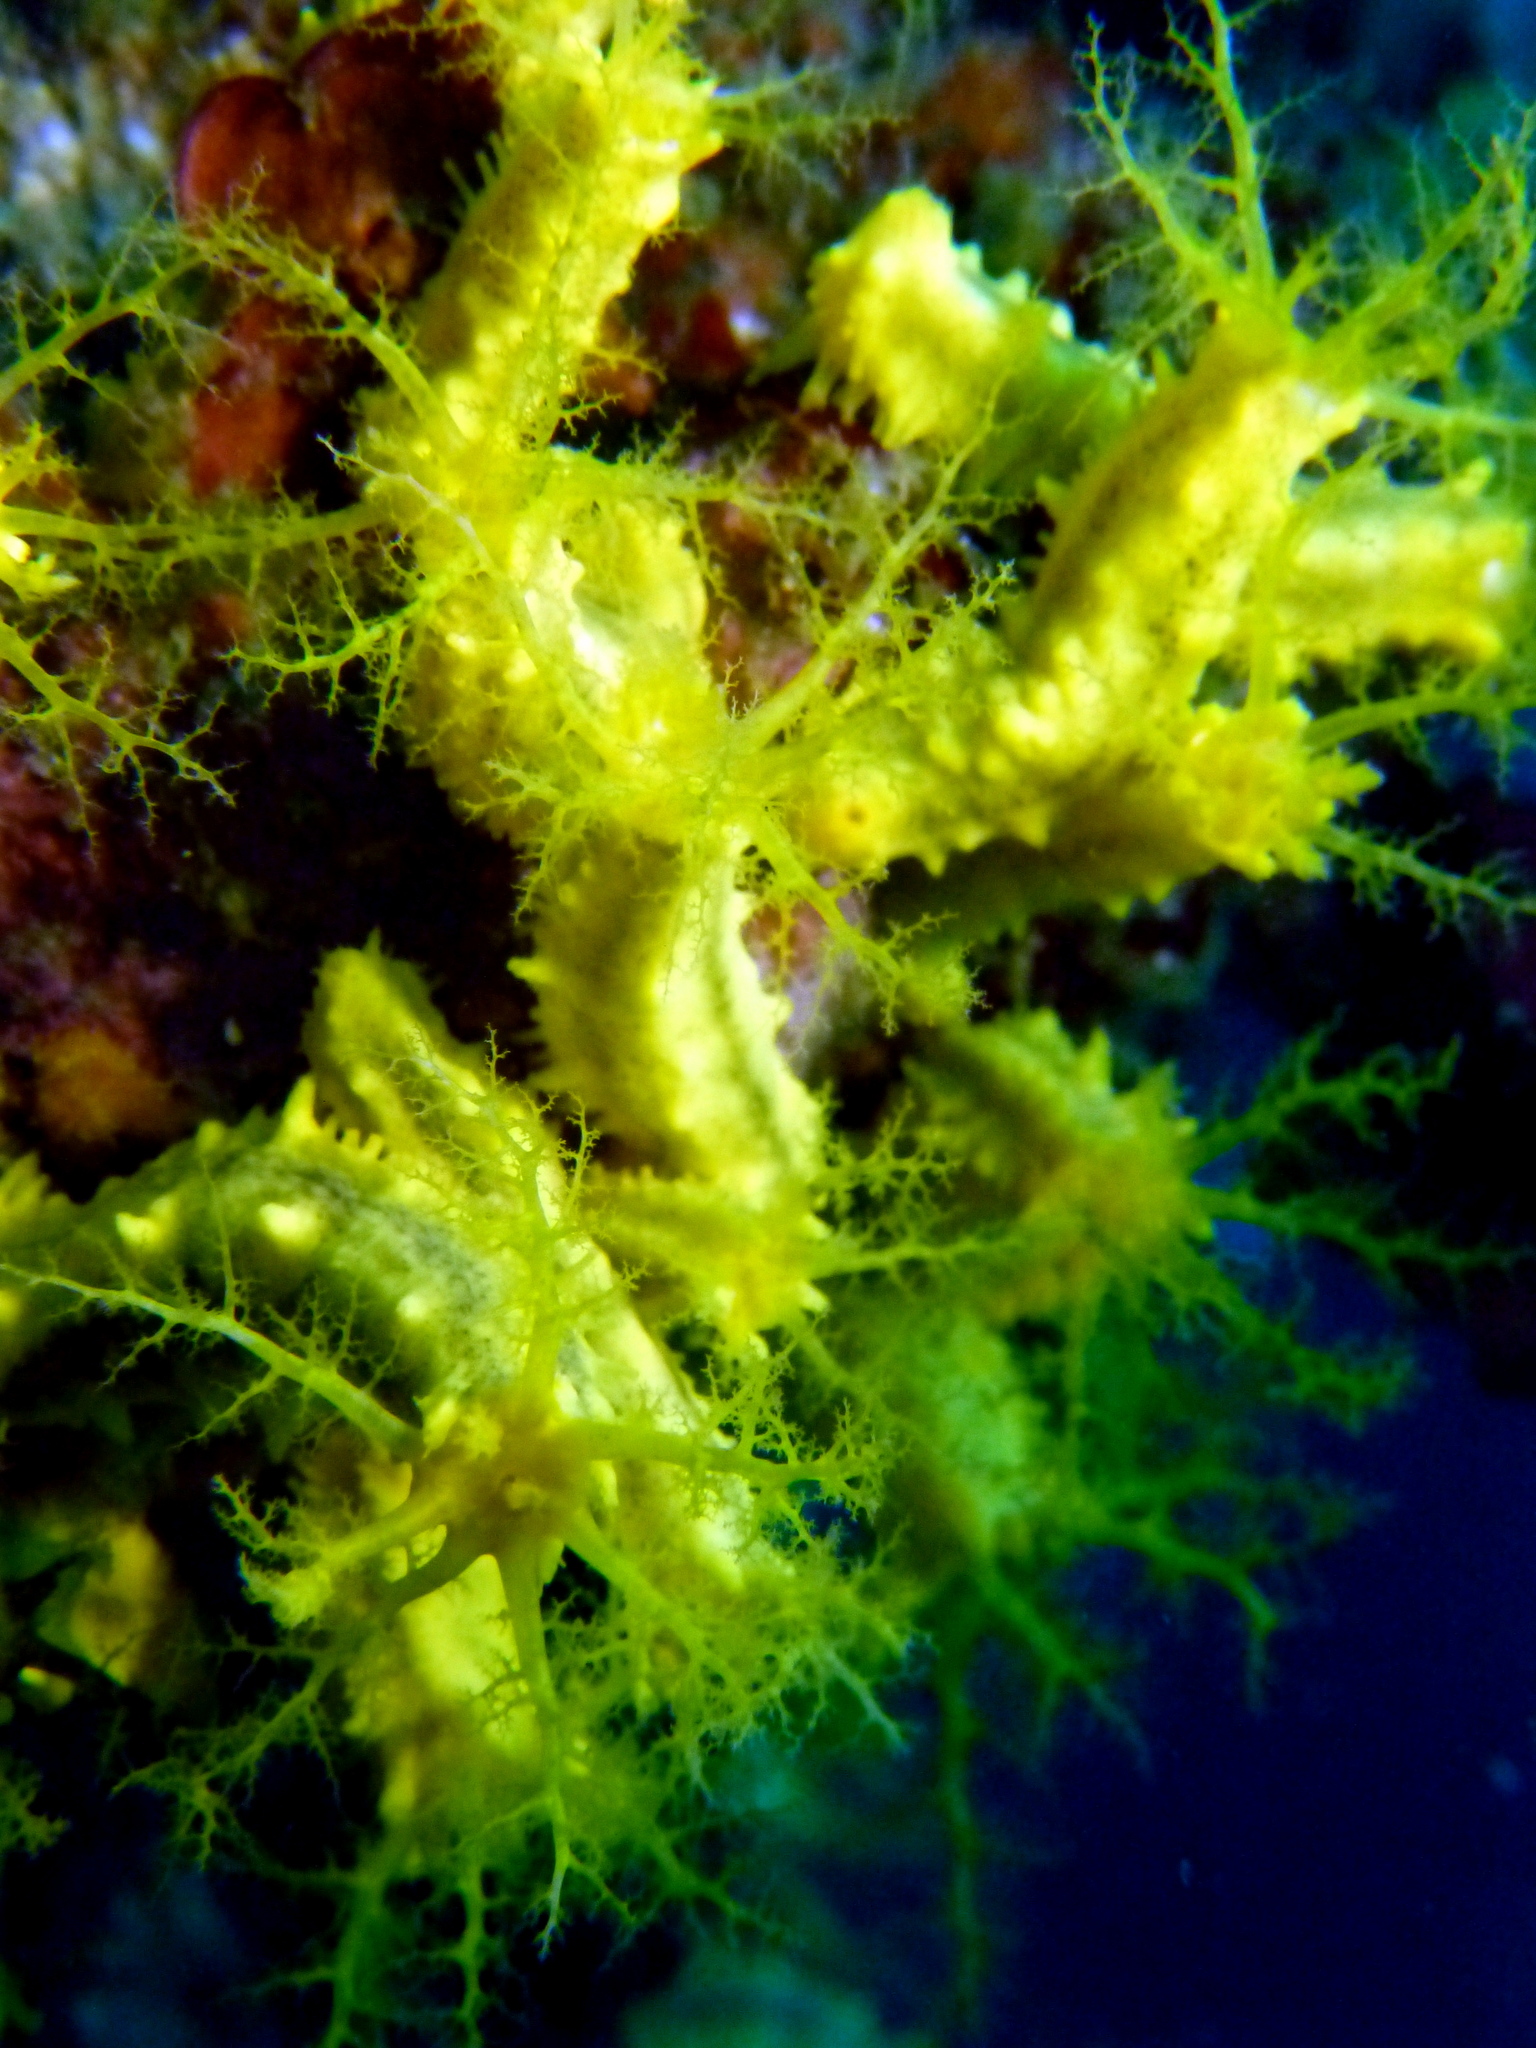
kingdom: Animalia
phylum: Echinodermata
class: Holothuroidea
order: Dendrochirotida
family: Cucumariidae
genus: Colochirus
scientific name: Colochirus robustus
